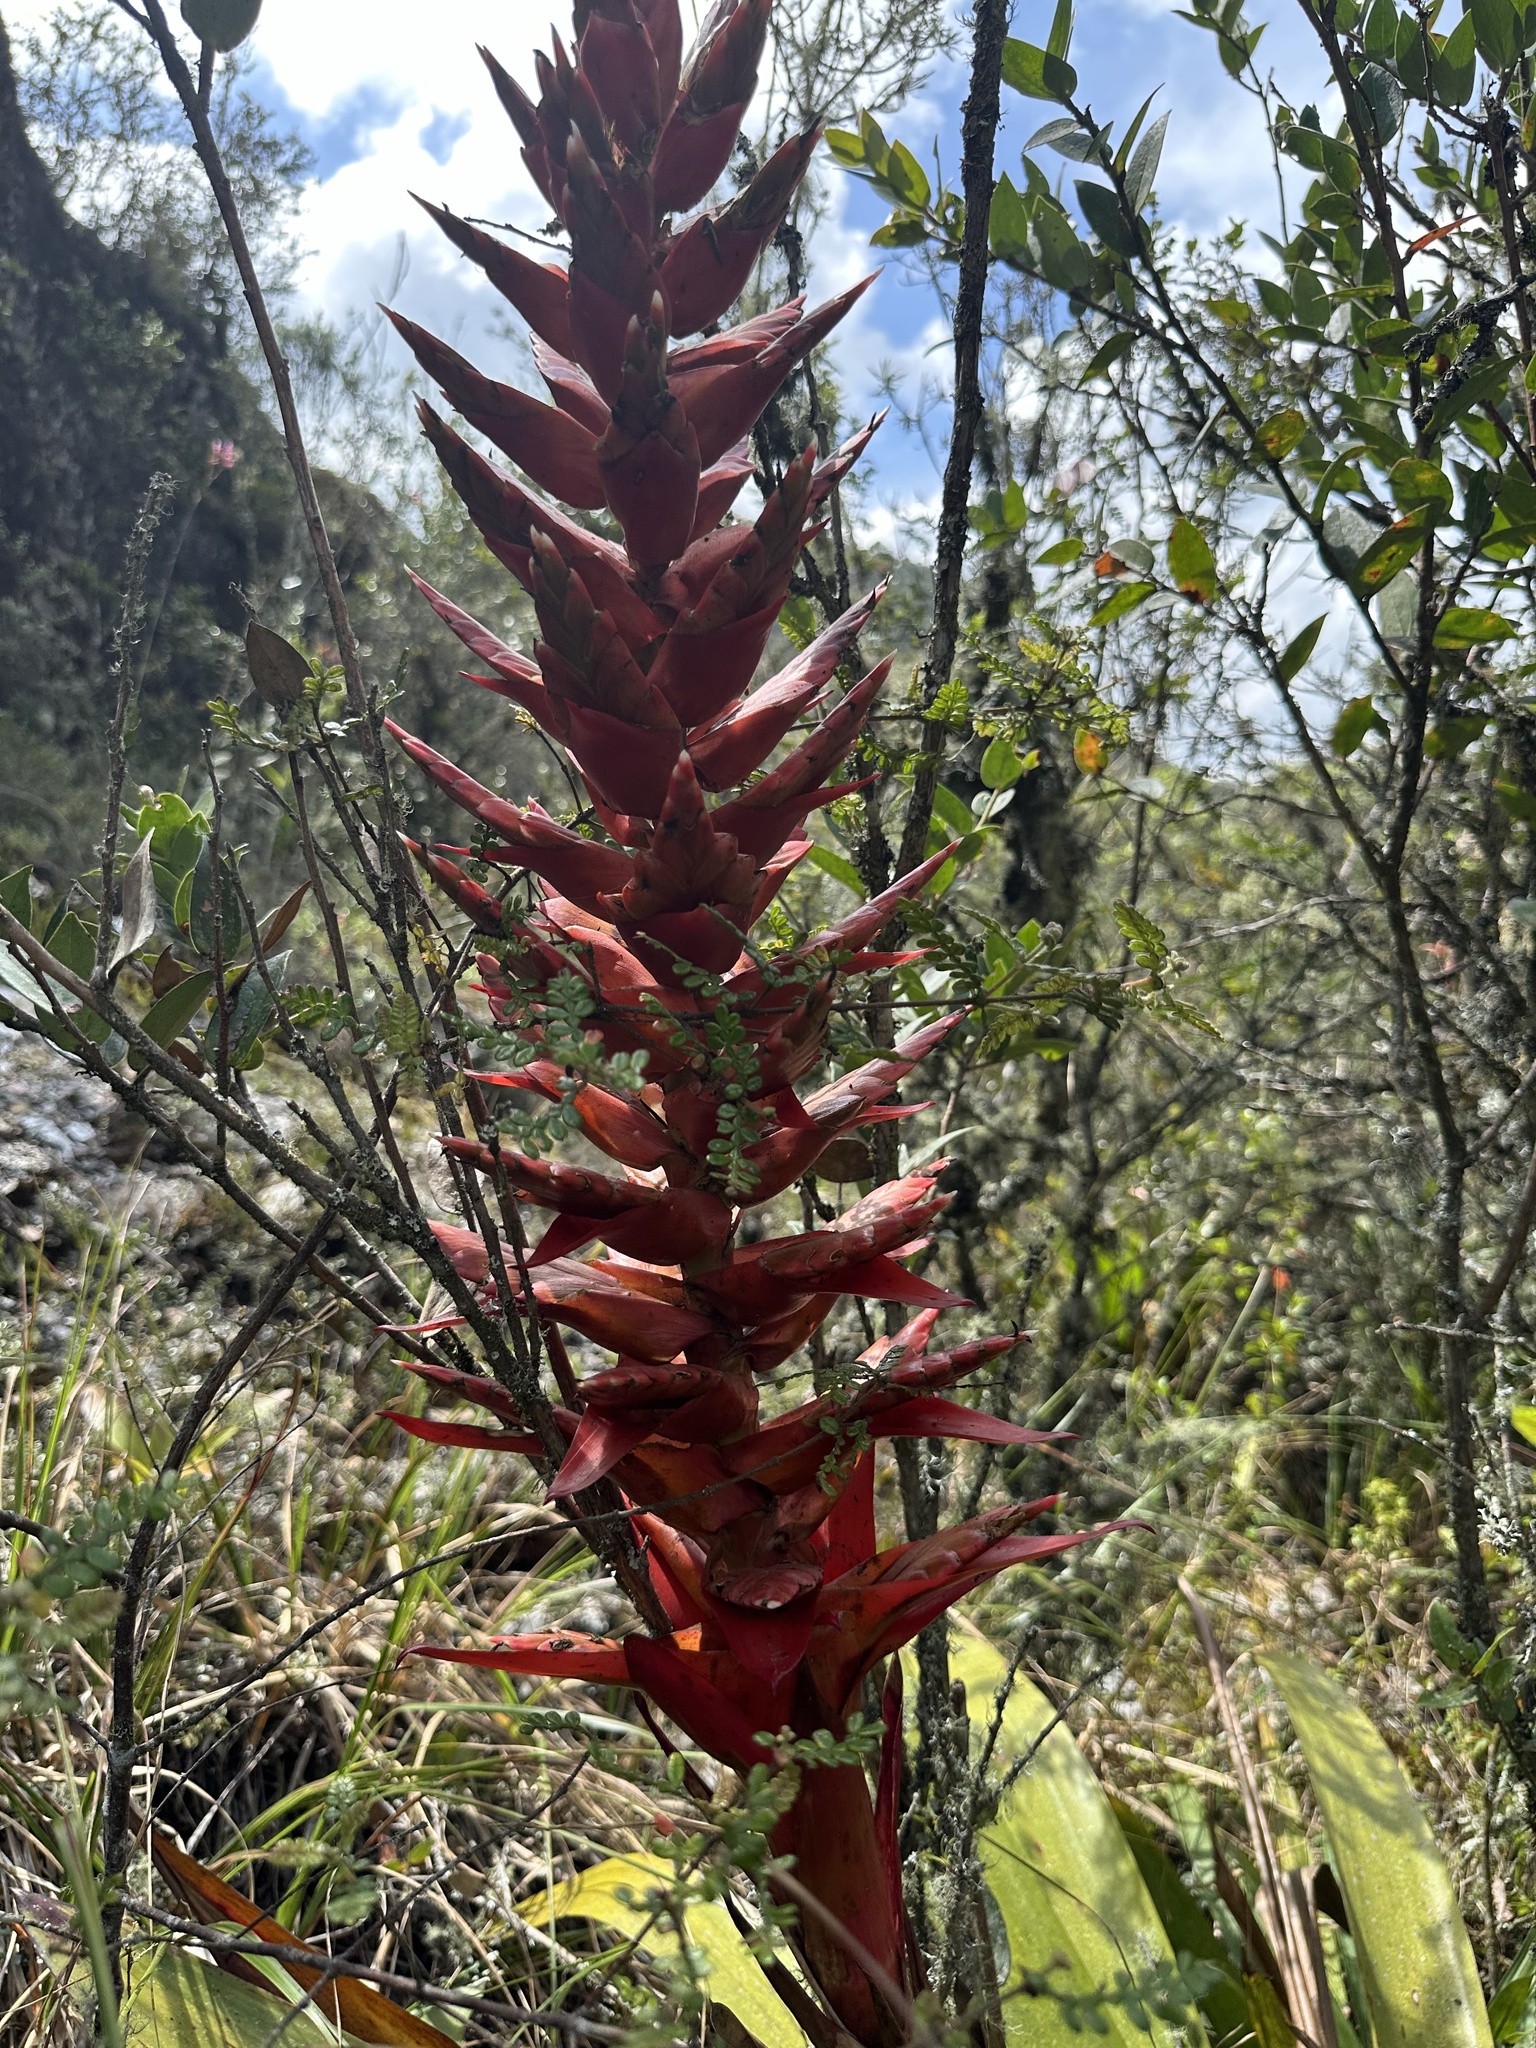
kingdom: Plantae
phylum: Tracheophyta
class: Liliopsida
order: Poales
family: Bromeliaceae
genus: Tillandsia
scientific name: Tillandsia schimperiana
